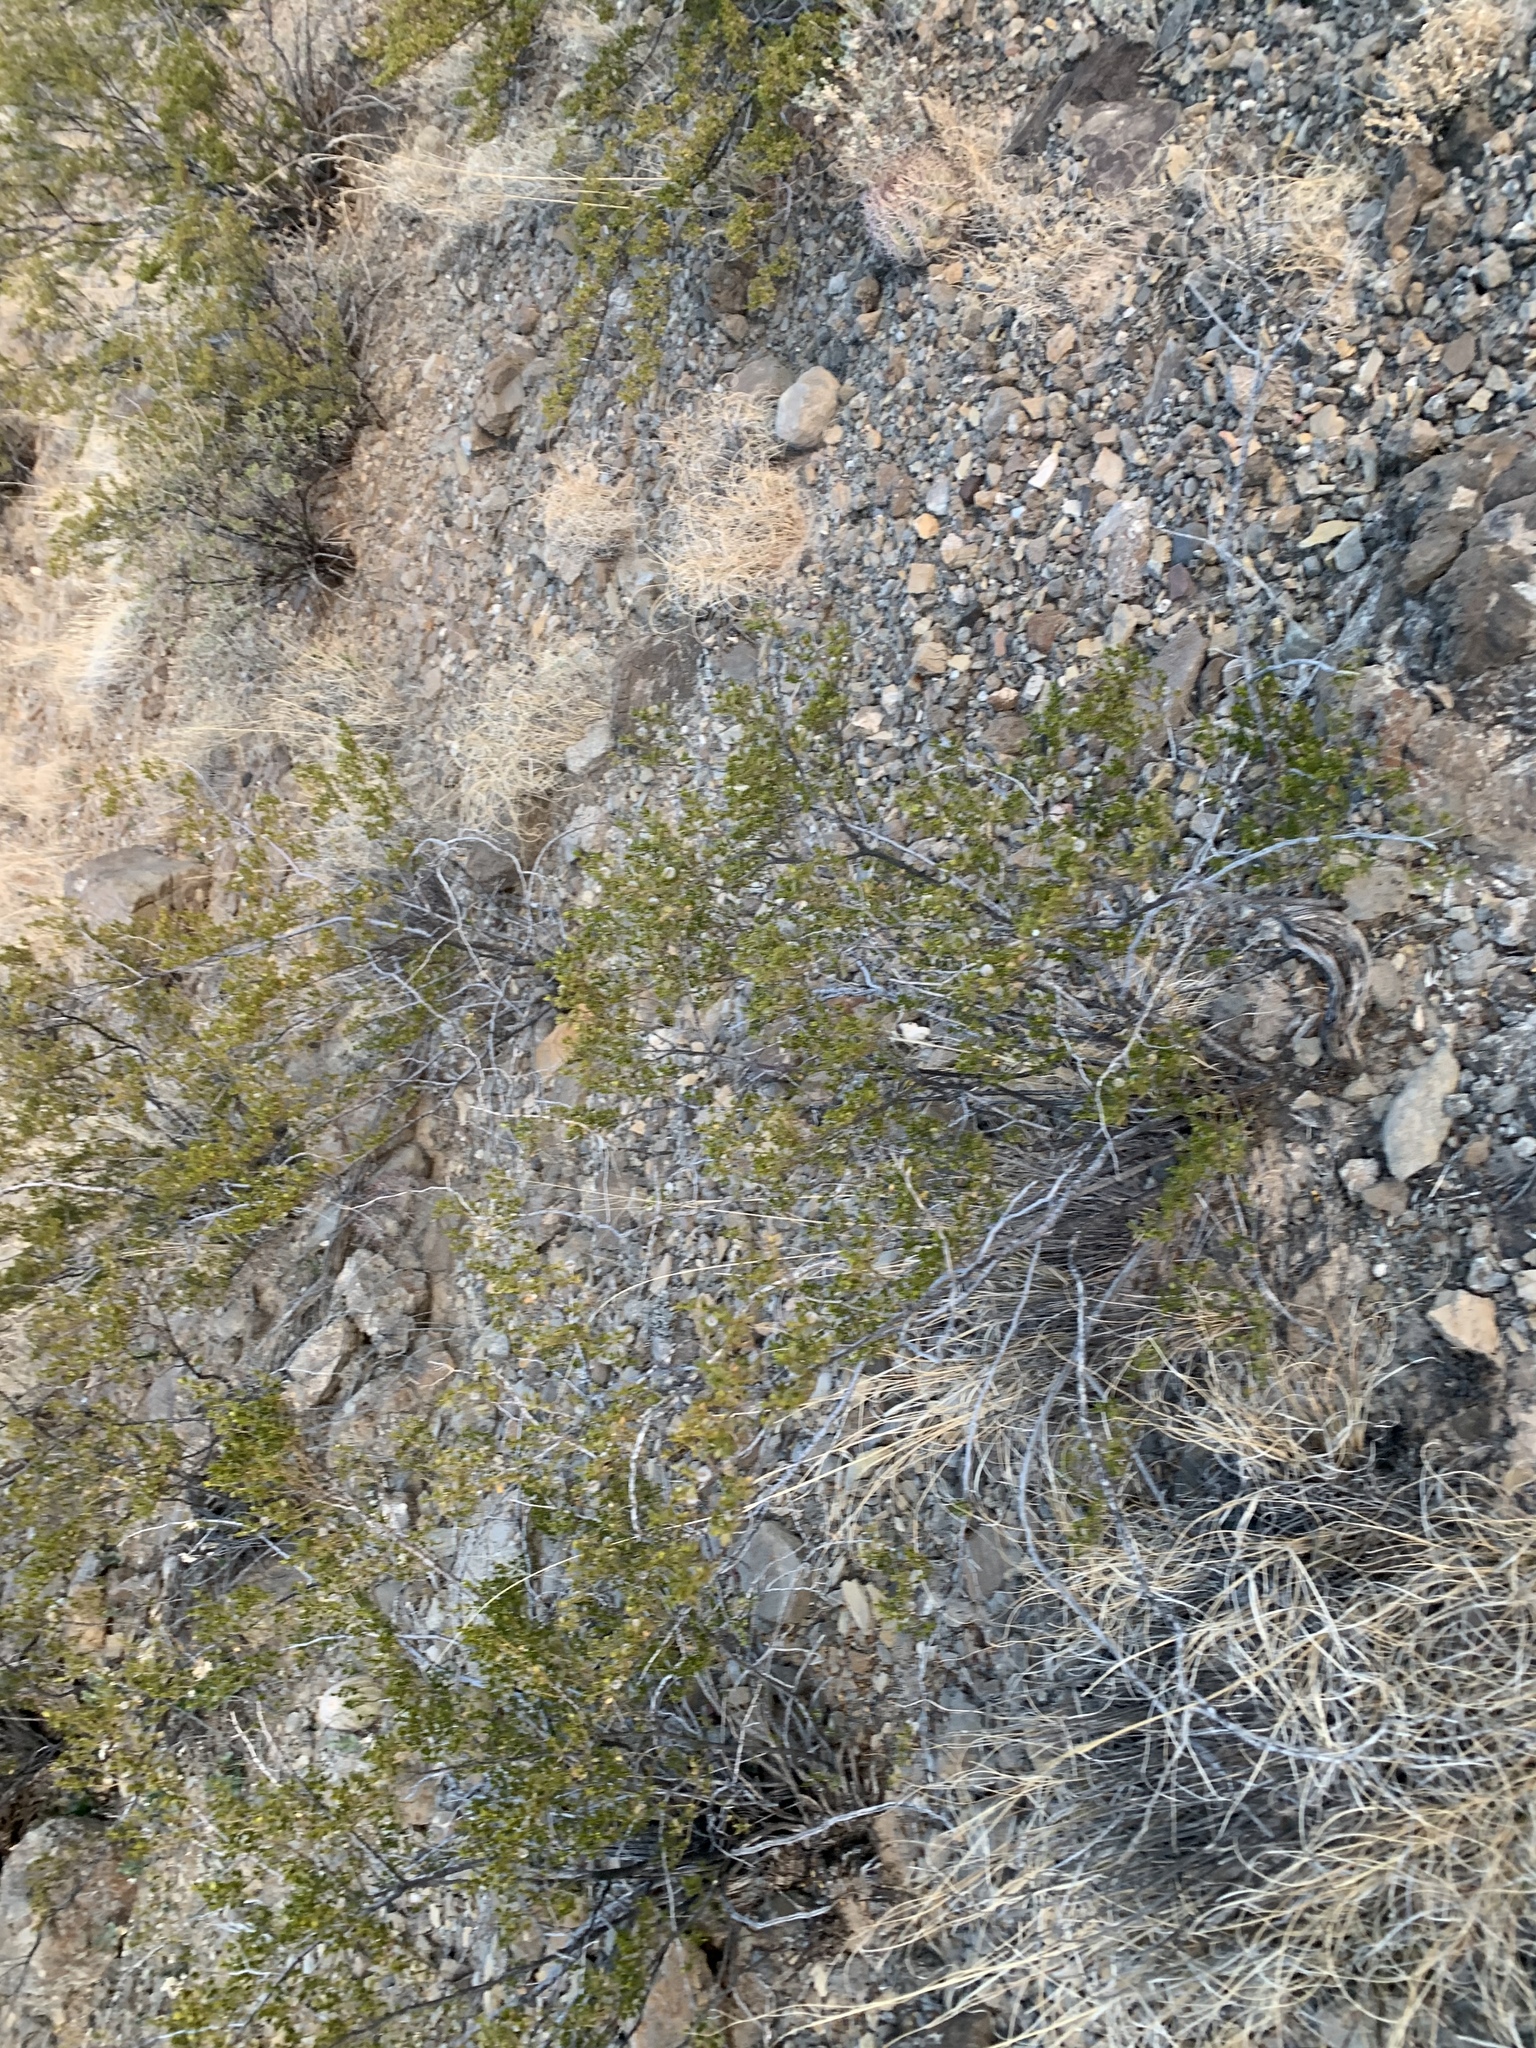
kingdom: Plantae
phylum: Tracheophyta
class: Magnoliopsida
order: Zygophyllales
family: Zygophyllaceae
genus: Larrea
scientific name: Larrea tridentata
